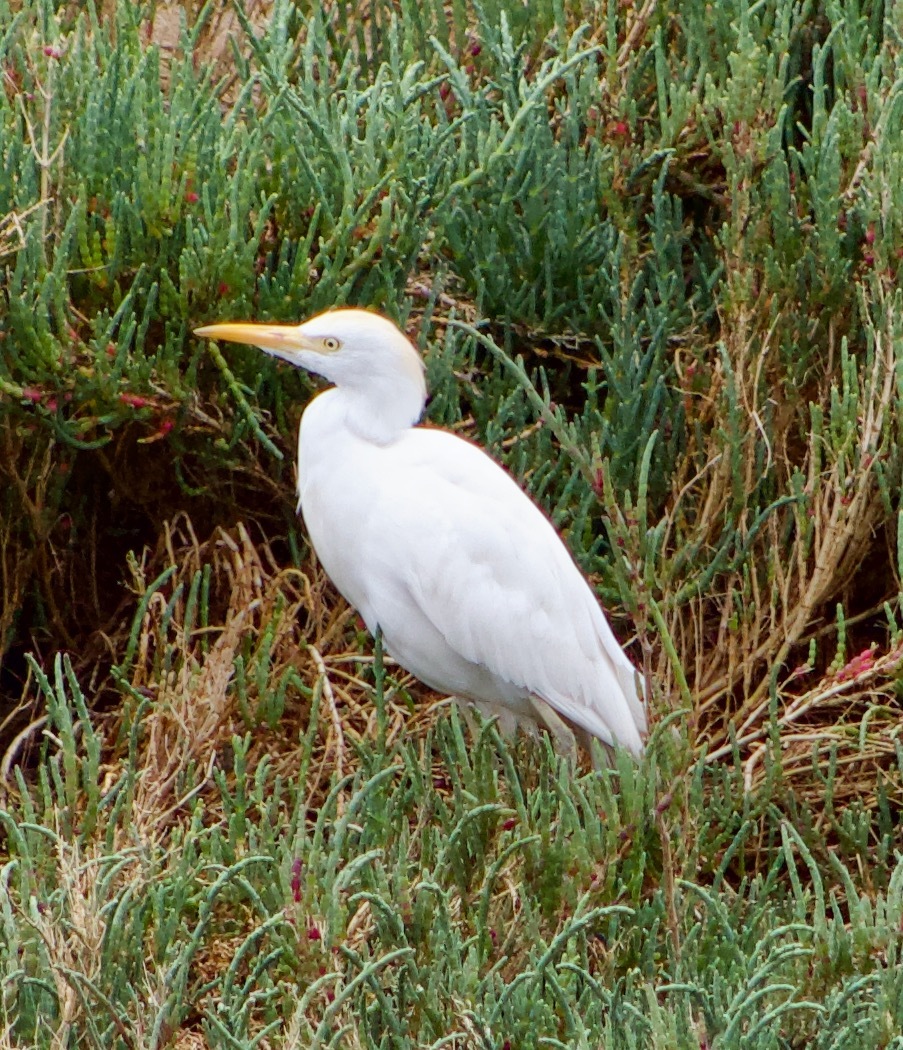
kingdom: Animalia
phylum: Chordata
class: Aves
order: Pelecaniformes
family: Ardeidae
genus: Bubulcus
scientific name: Bubulcus ibis
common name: Cattle egret
